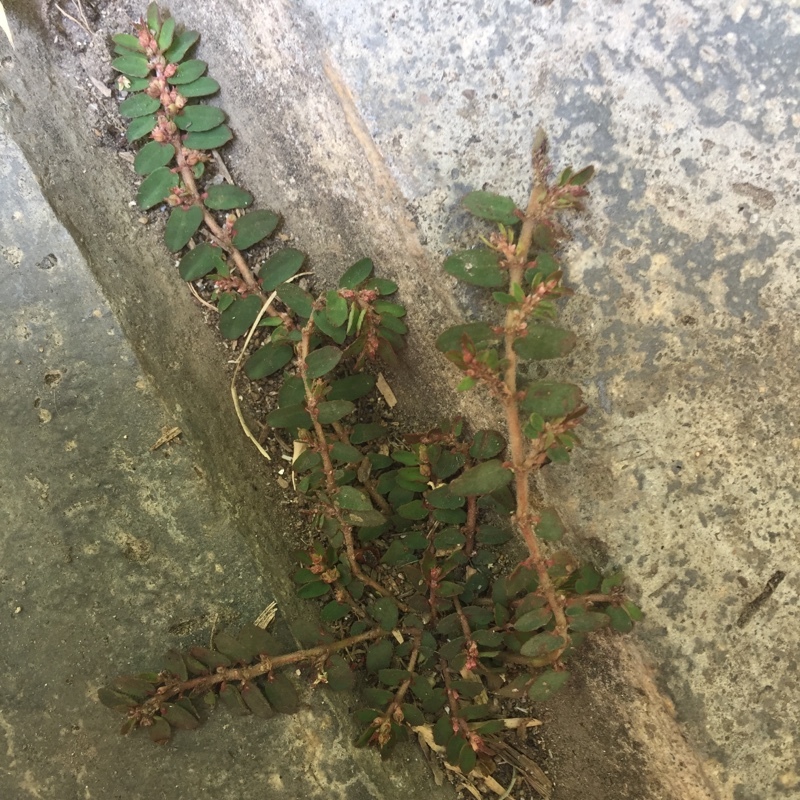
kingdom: Plantae
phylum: Tracheophyta
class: Magnoliopsida
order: Malpighiales
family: Euphorbiaceae
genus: Euphorbia
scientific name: Euphorbia thymifolia
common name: Gulf sandmat
